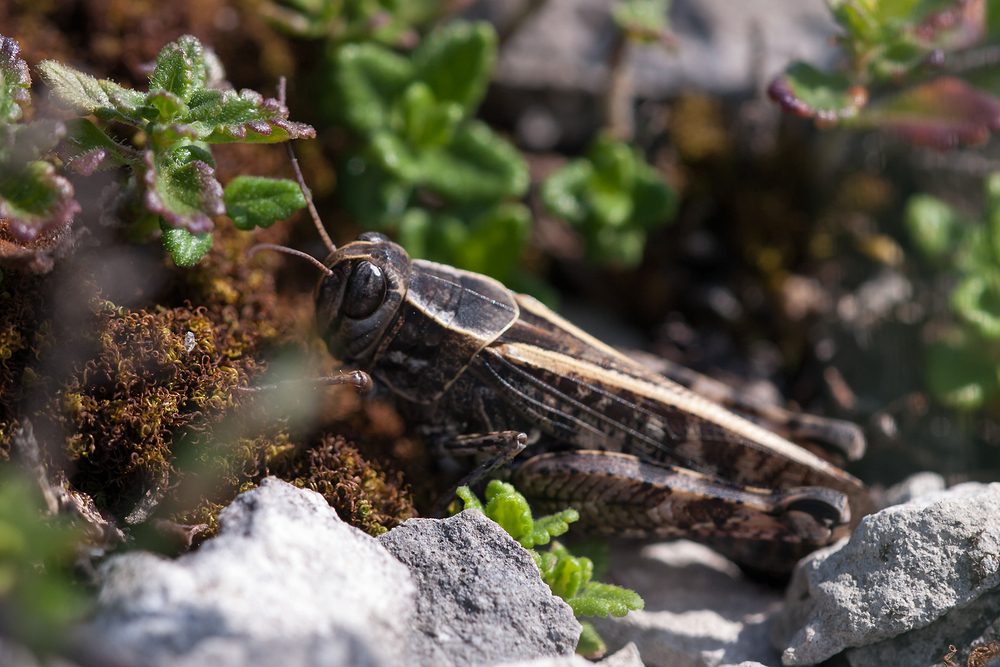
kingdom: Animalia
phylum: Arthropoda
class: Insecta
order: Orthoptera
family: Acrididae
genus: Calliptamus
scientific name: Calliptamus italicus
